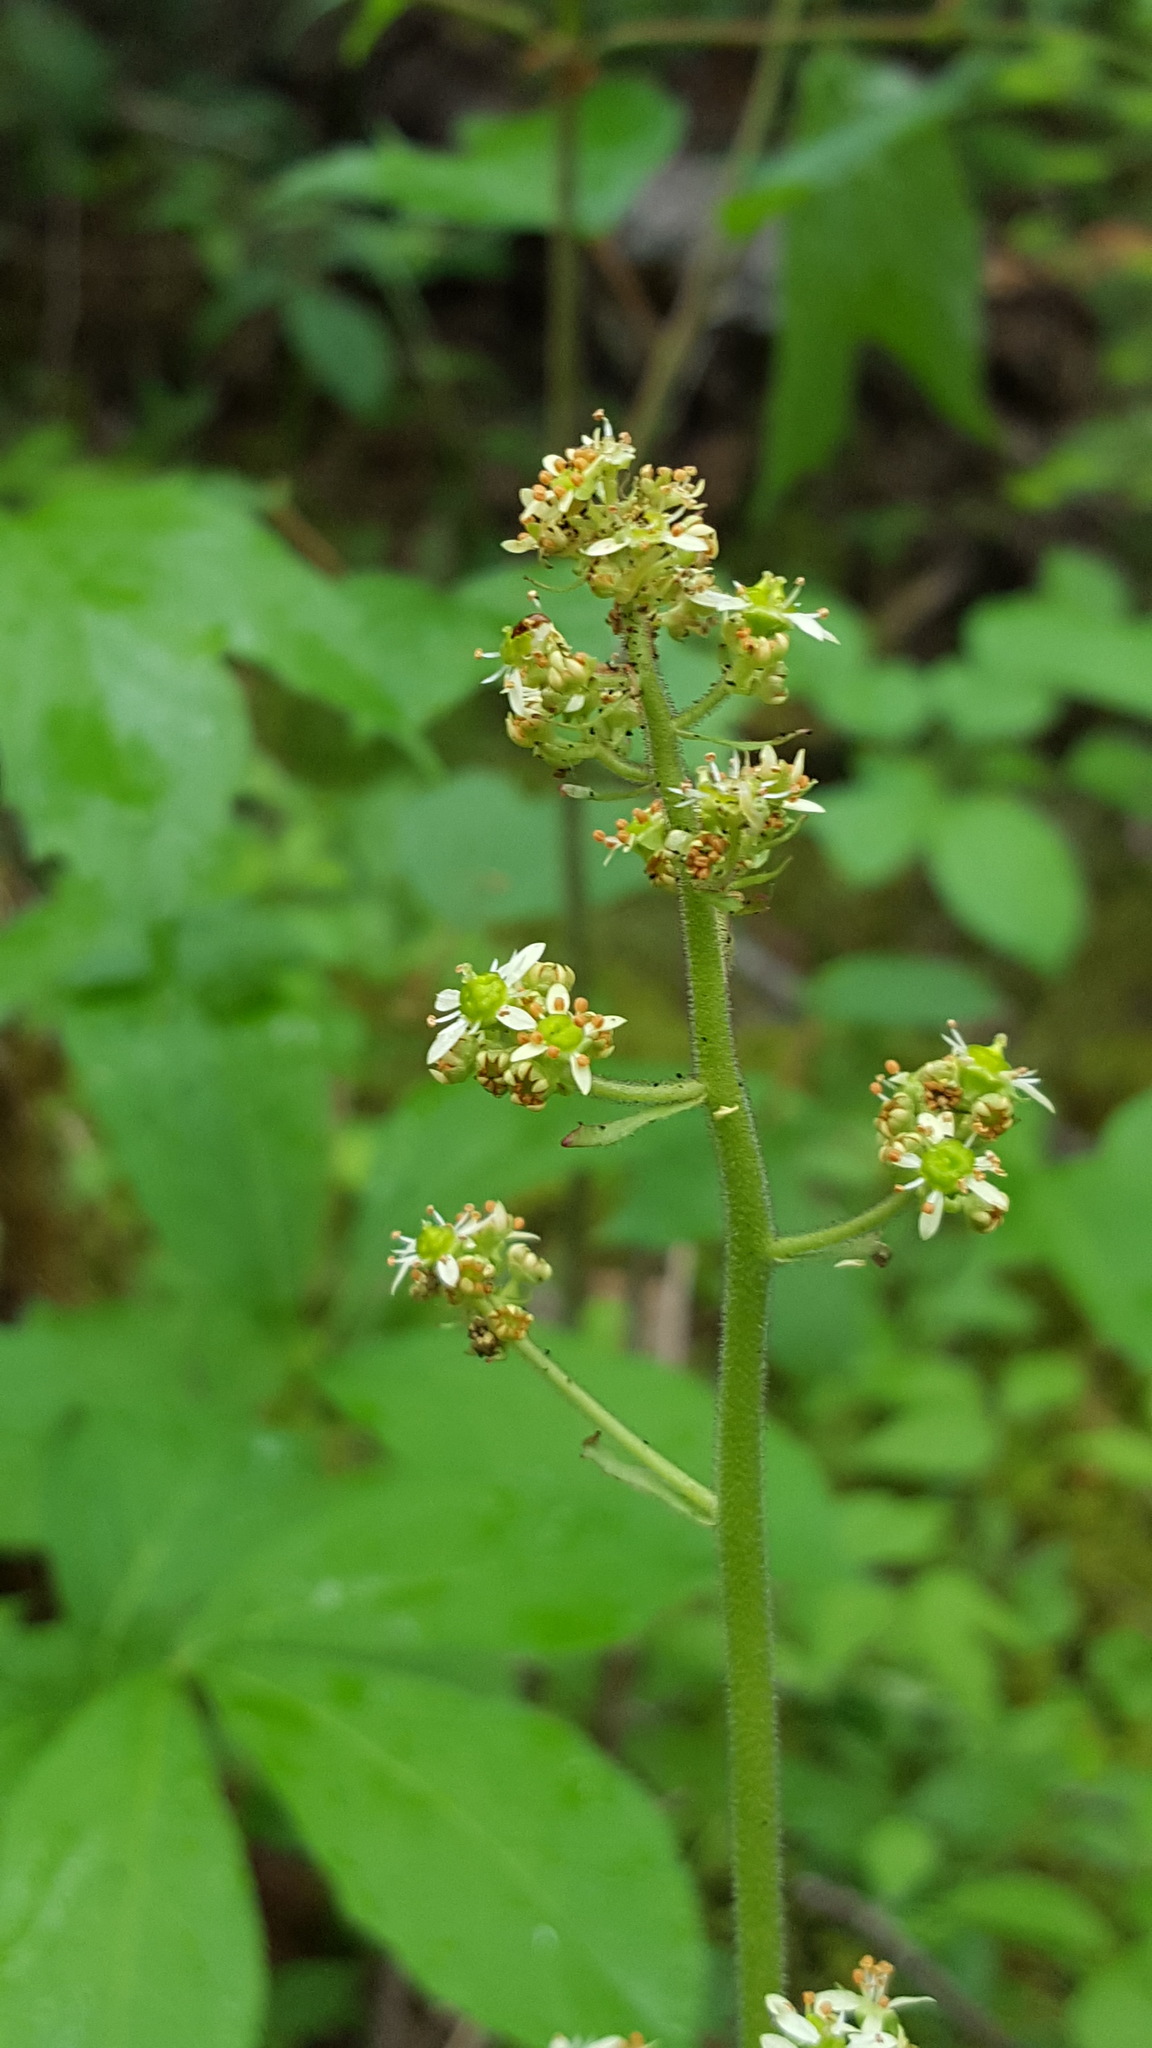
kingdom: Plantae
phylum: Tracheophyta
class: Magnoliopsida
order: Saxifragales
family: Saxifragaceae
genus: Micranthes
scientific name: Micranthes pensylvanica
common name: Marsh saxifrage
